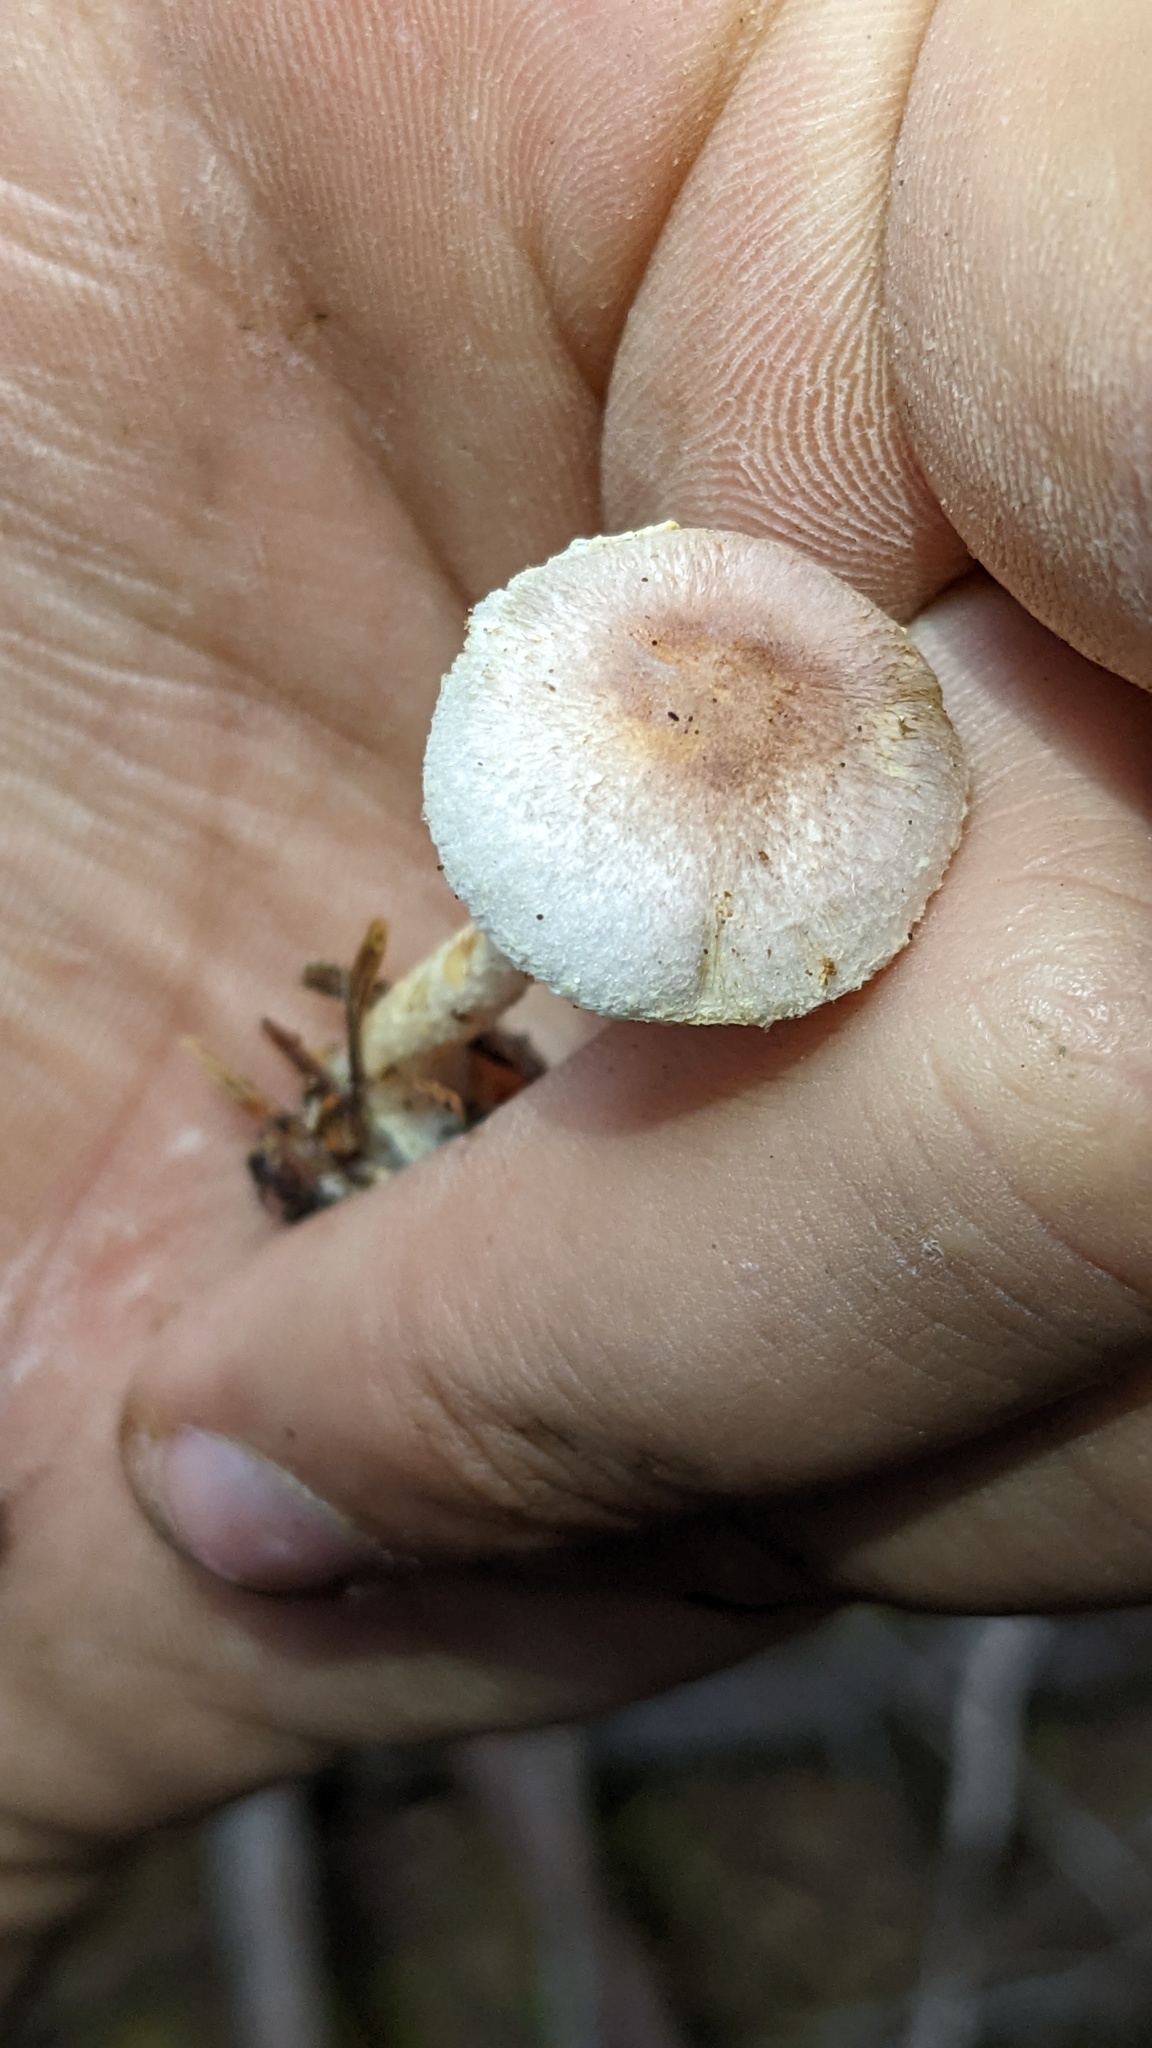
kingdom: Fungi
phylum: Basidiomycota
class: Agaricomycetes
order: Agaricales
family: Agaricaceae
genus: Agaricus
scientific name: Agaricus diminutivus
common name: Diminutive agaricus
